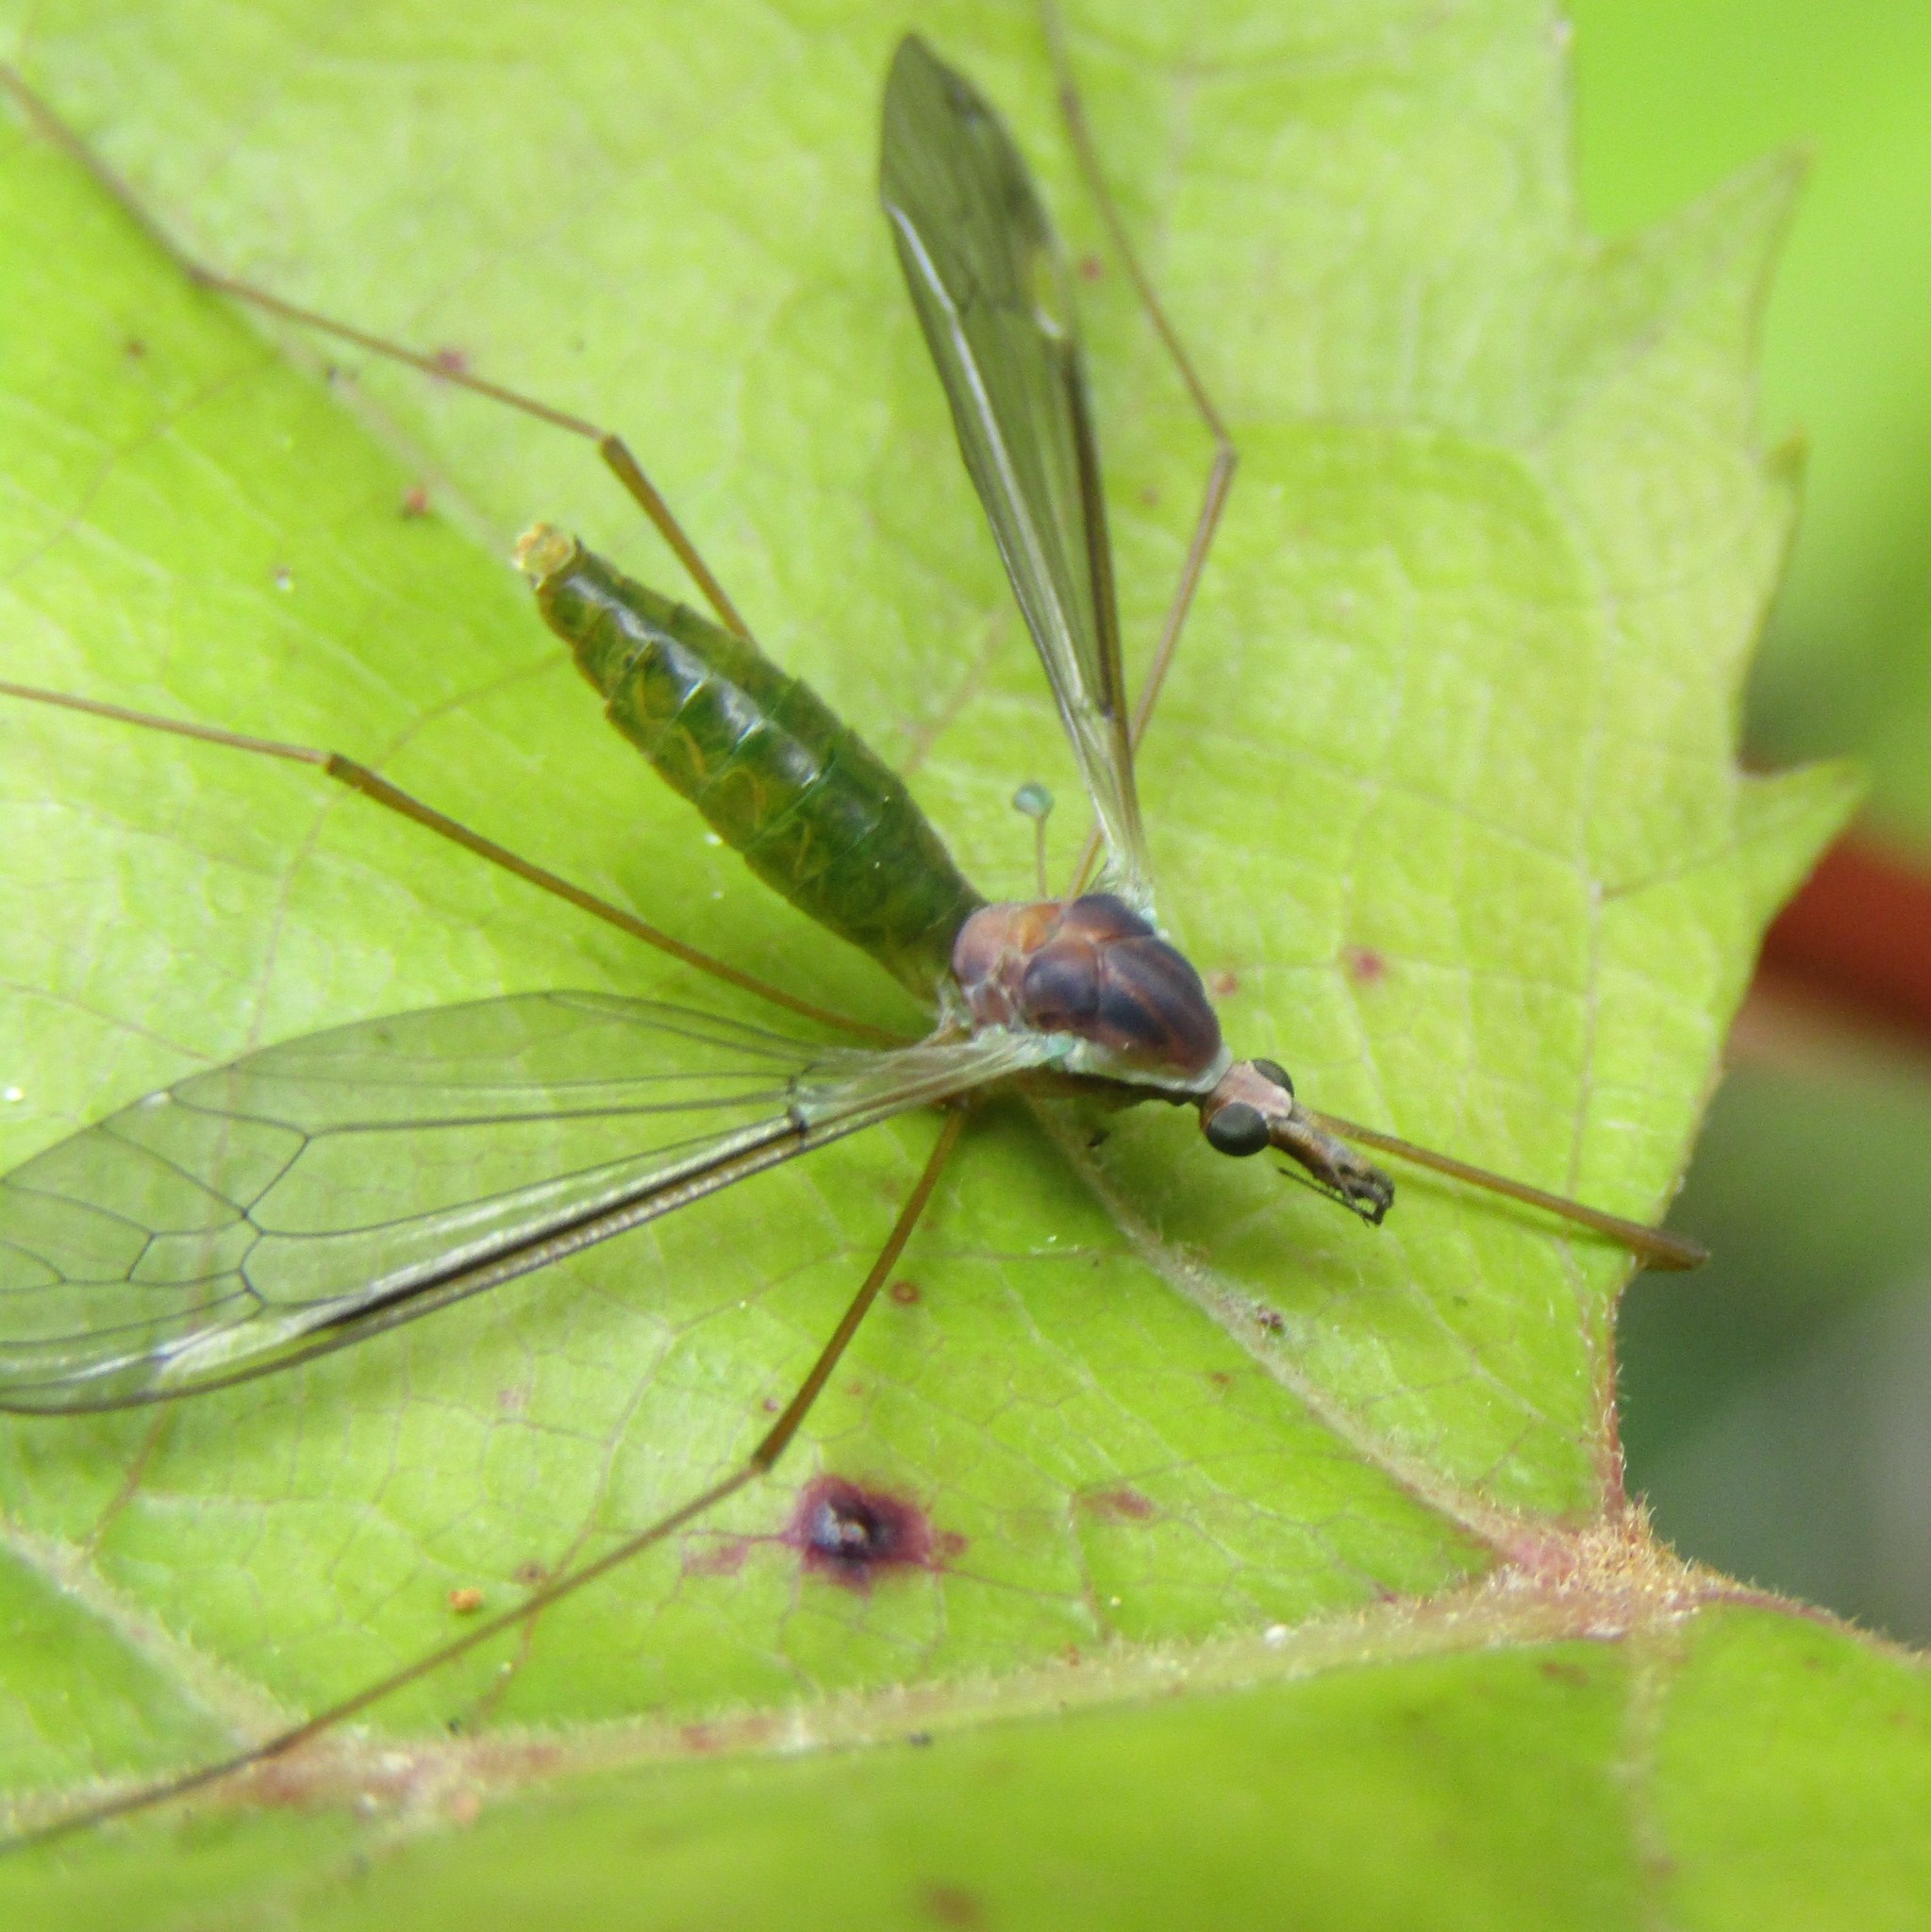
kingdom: Animalia
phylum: Arthropoda
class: Insecta
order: Diptera
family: Tipulidae
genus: Leptotarsus
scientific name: Leptotarsus pallidistigma
